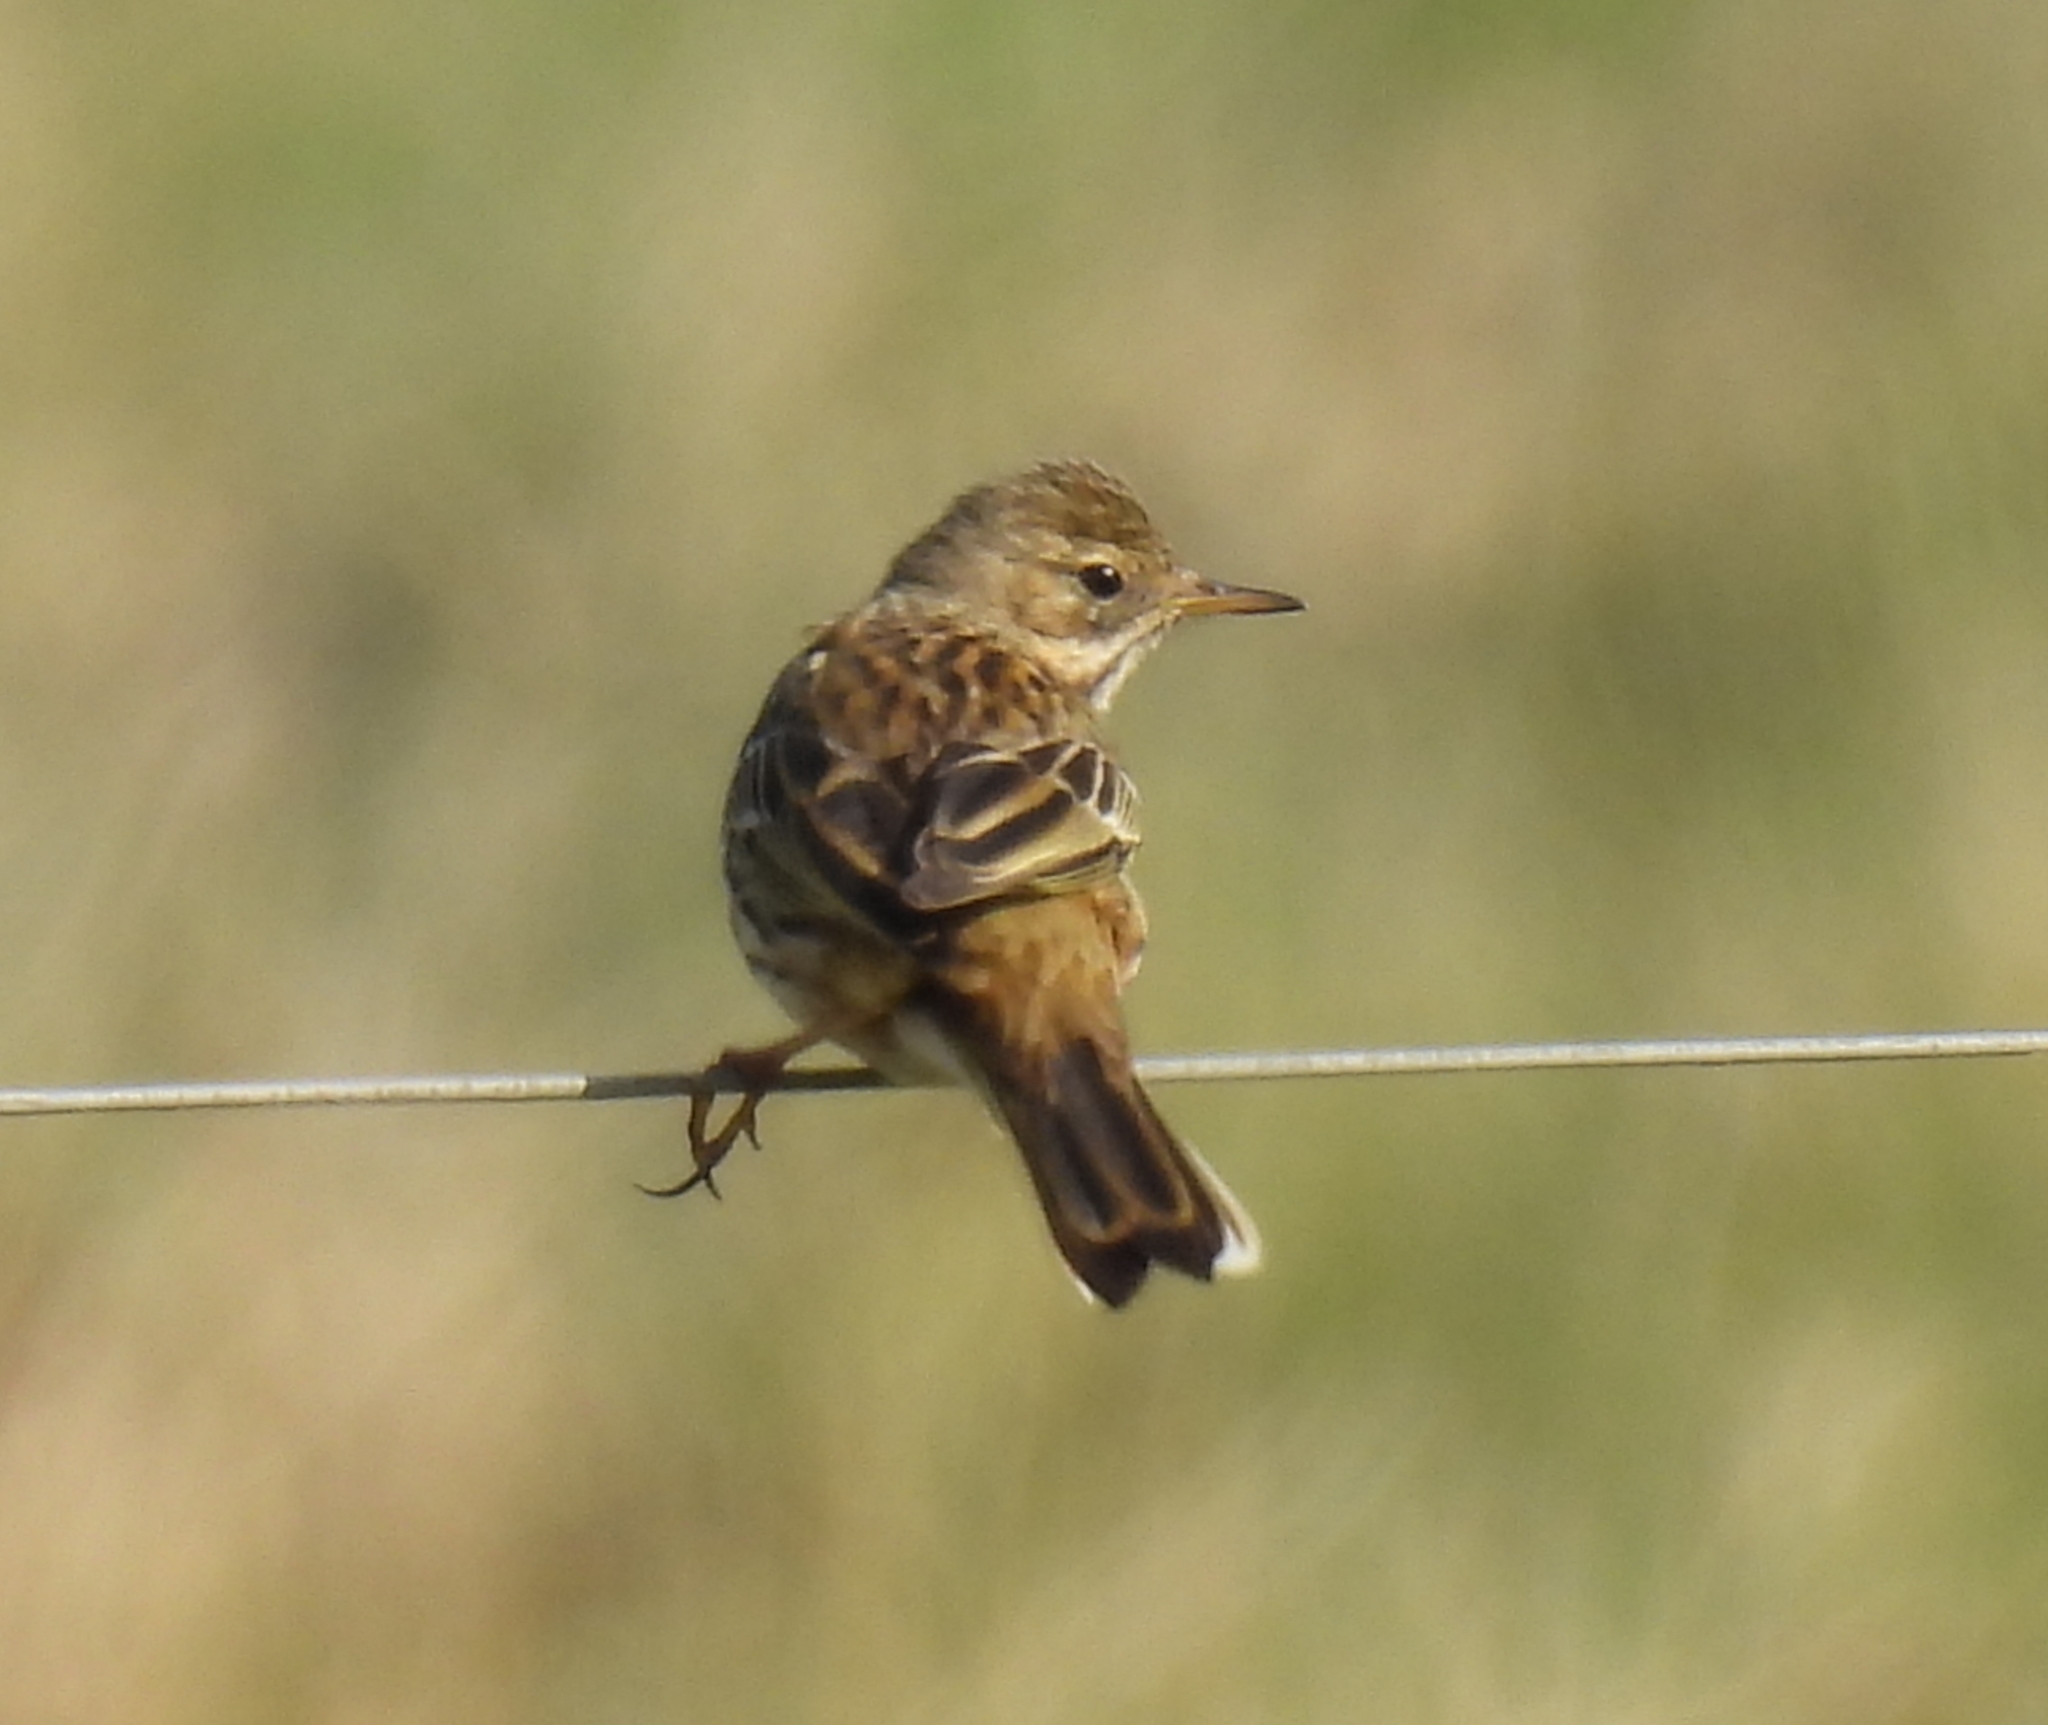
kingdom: Animalia
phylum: Chordata
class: Aves
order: Passeriformes
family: Motacillidae
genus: Anthus
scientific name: Anthus pratensis
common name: Meadow pipit
